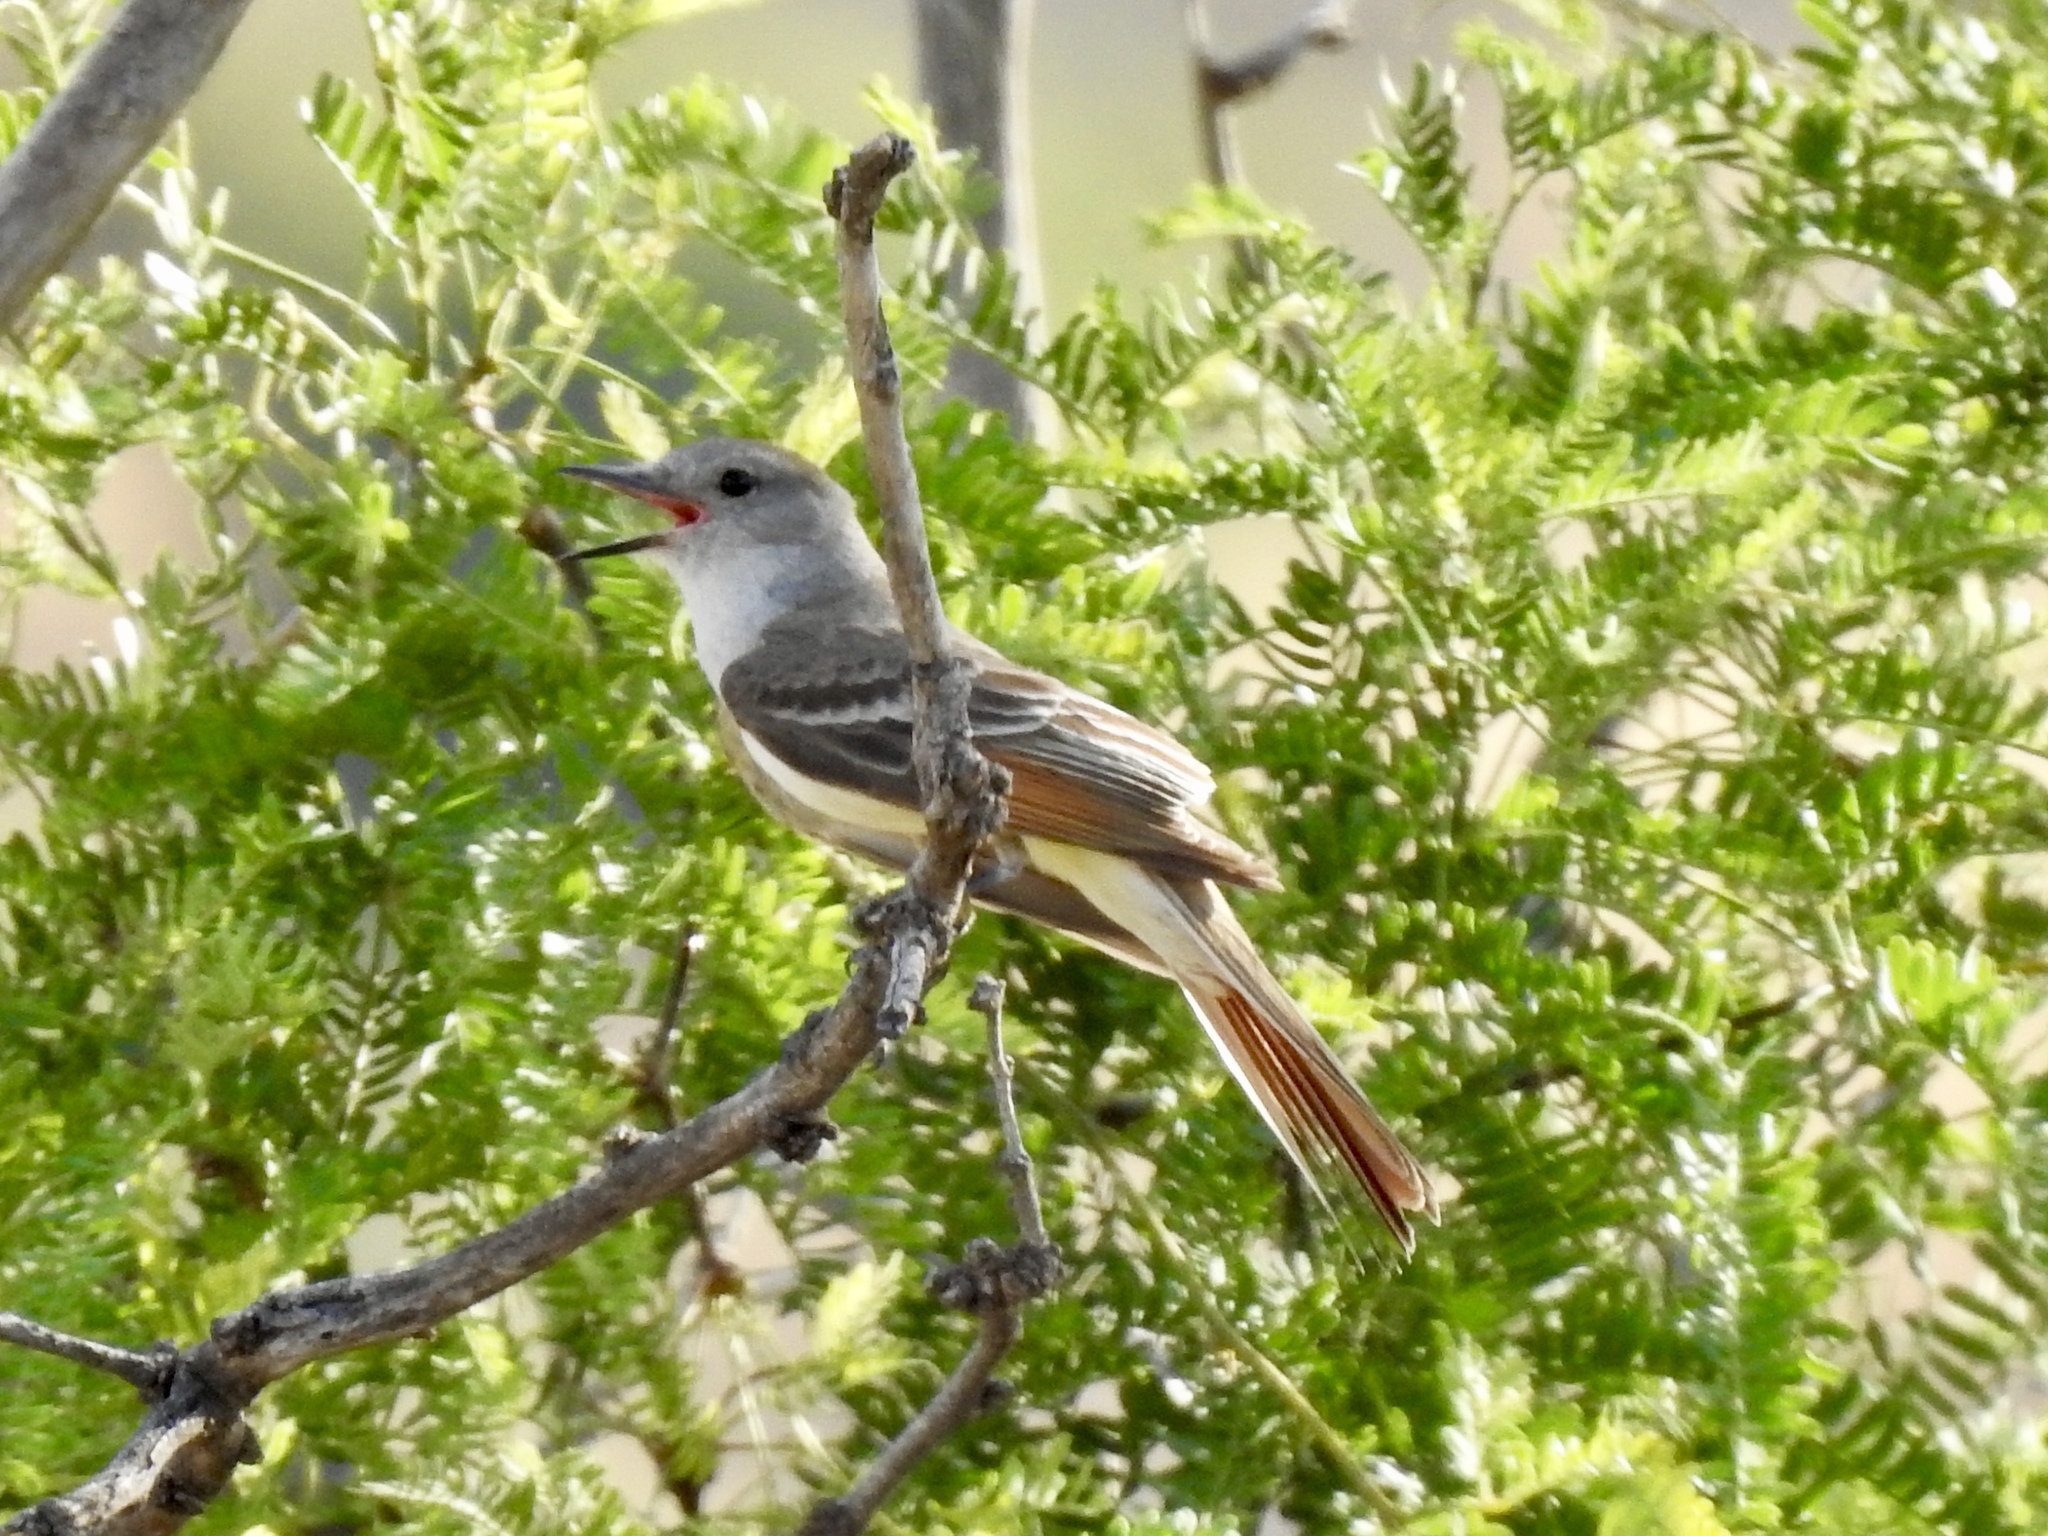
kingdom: Animalia
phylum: Chordata
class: Aves
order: Passeriformes
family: Tyrannidae
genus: Myiarchus
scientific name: Myiarchus cinerascens
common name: Ash-throated flycatcher
